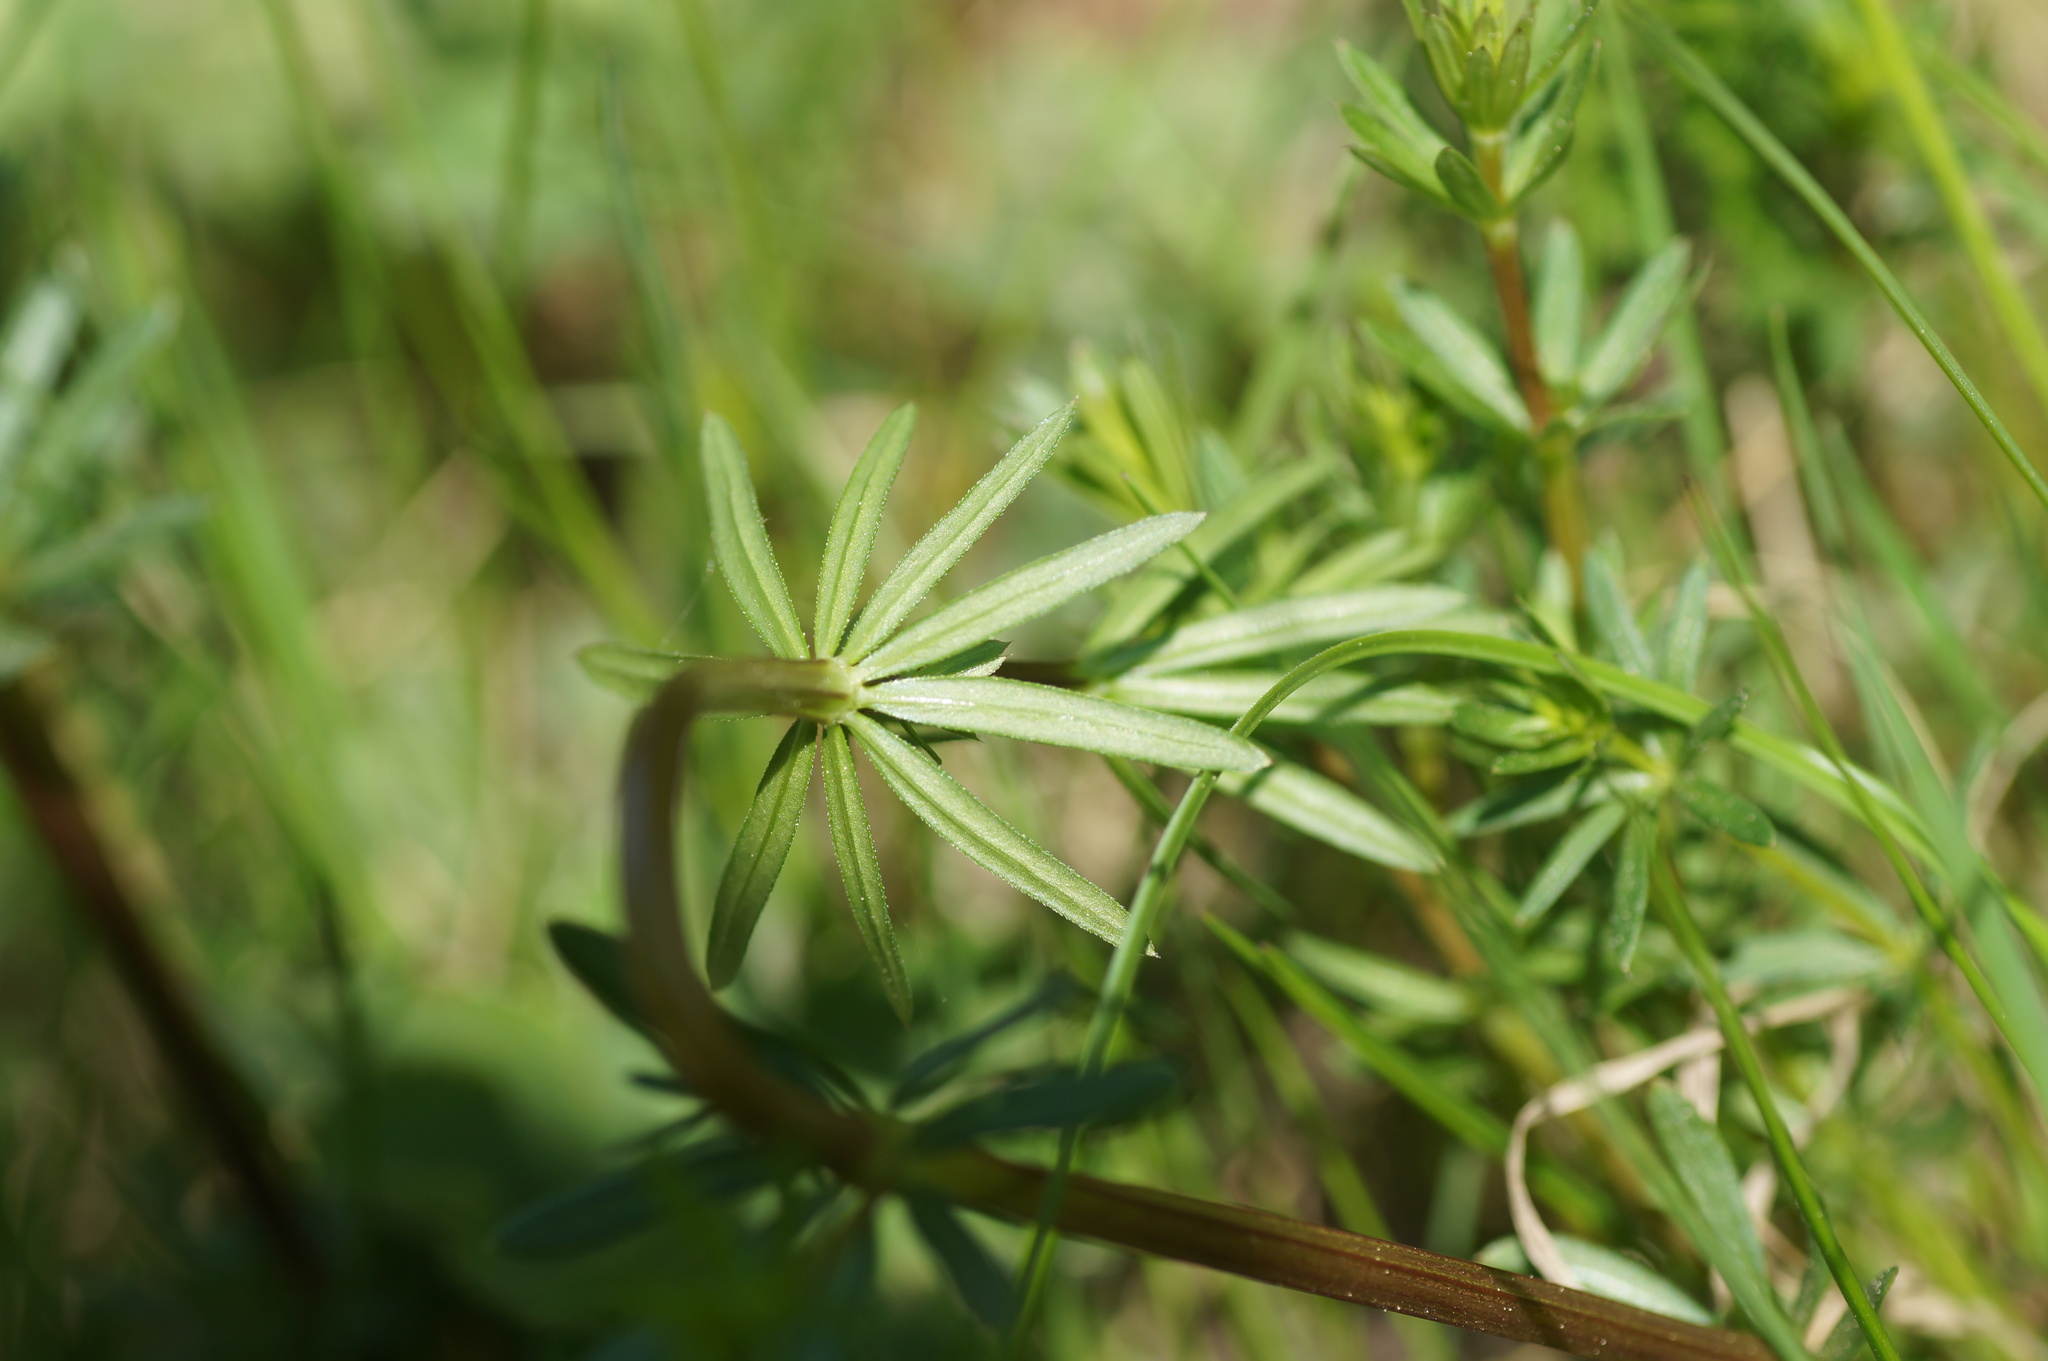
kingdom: Plantae
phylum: Tracheophyta
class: Magnoliopsida
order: Gentianales
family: Rubiaceae
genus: Galium
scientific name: Galium mollugo
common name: Hedge bedstraw
